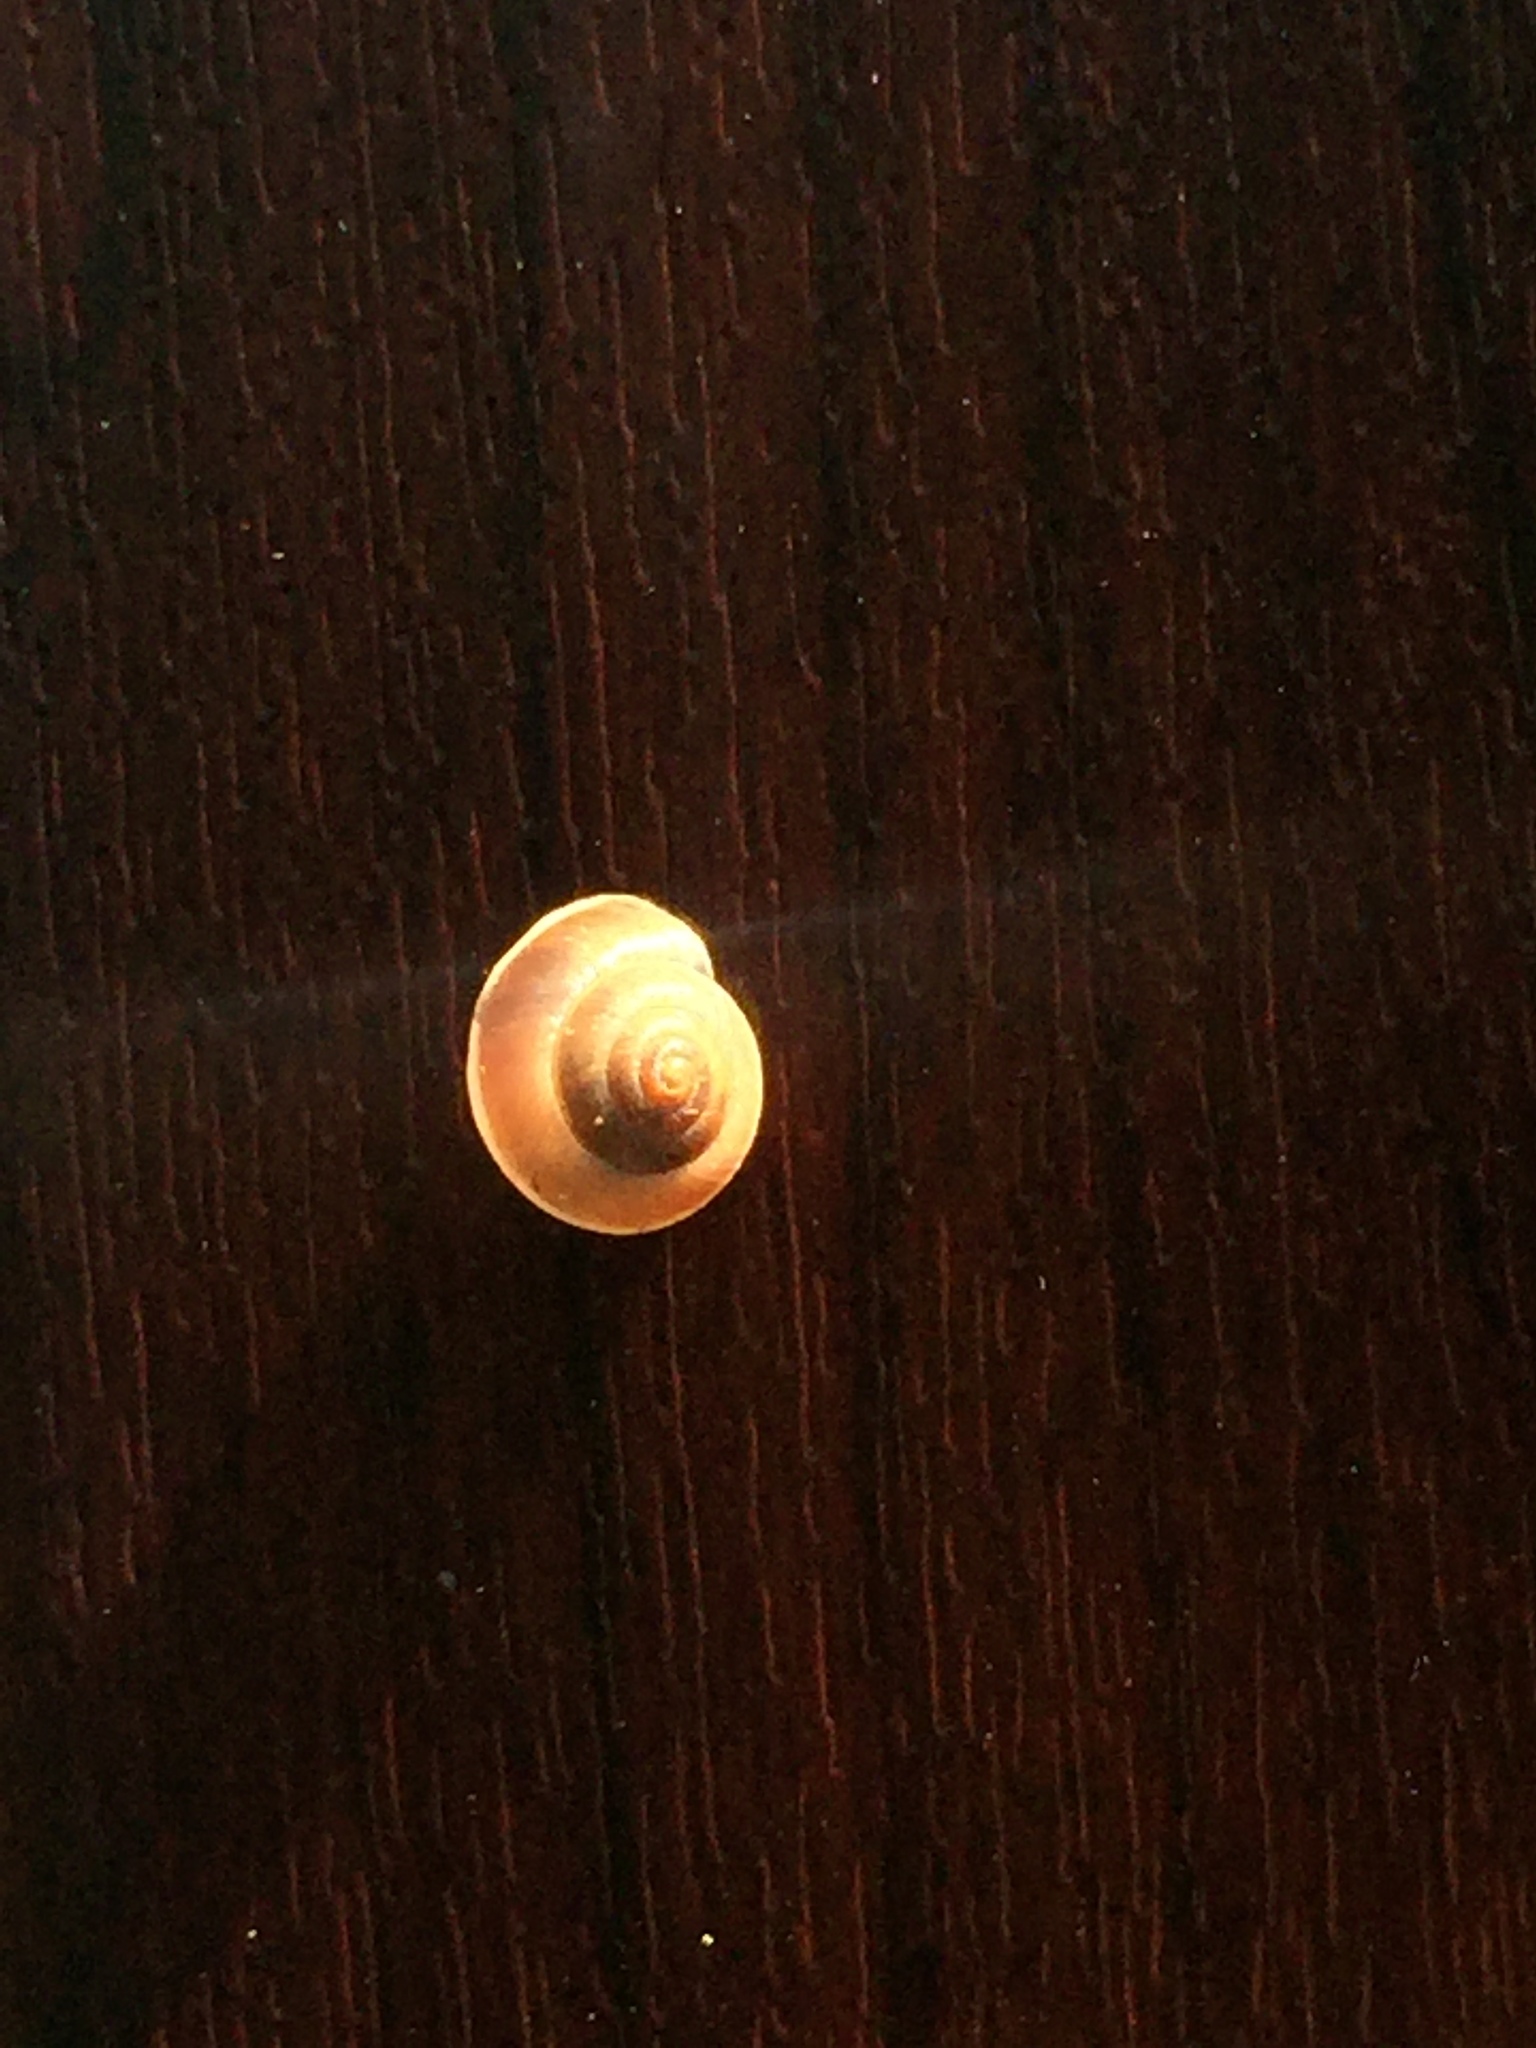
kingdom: Animalia
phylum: Mollusca
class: Gastropoda
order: Stylommatophora
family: Hygromiidae
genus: Hygromia
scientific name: Hygromia cinctella
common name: Girdled snail
